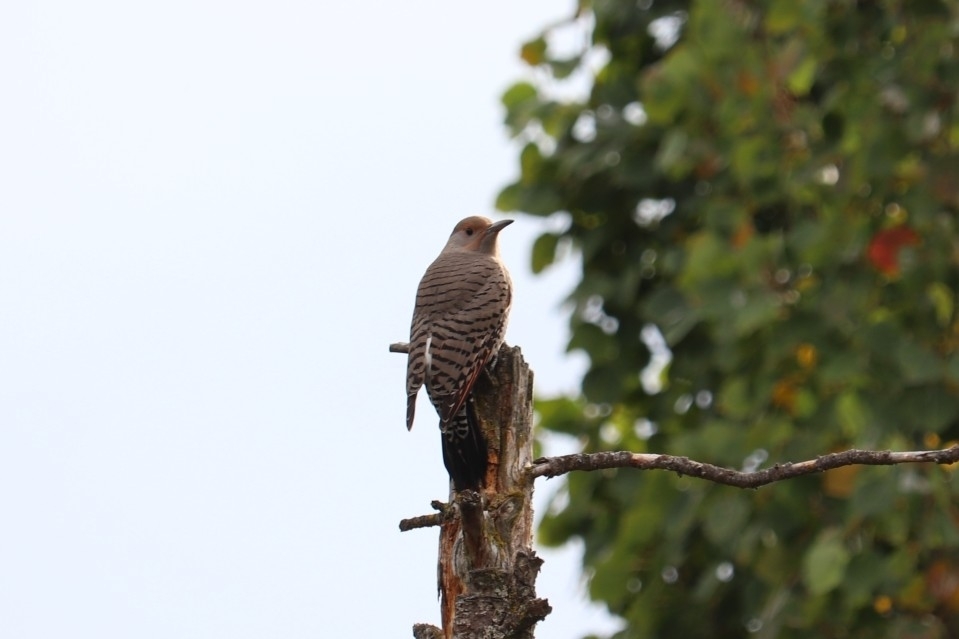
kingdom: Animalia
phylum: Chordata
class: Aves
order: Piciformes
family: Picidae
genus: Colaptes
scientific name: Colaptes auratus
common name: Northern flicker
